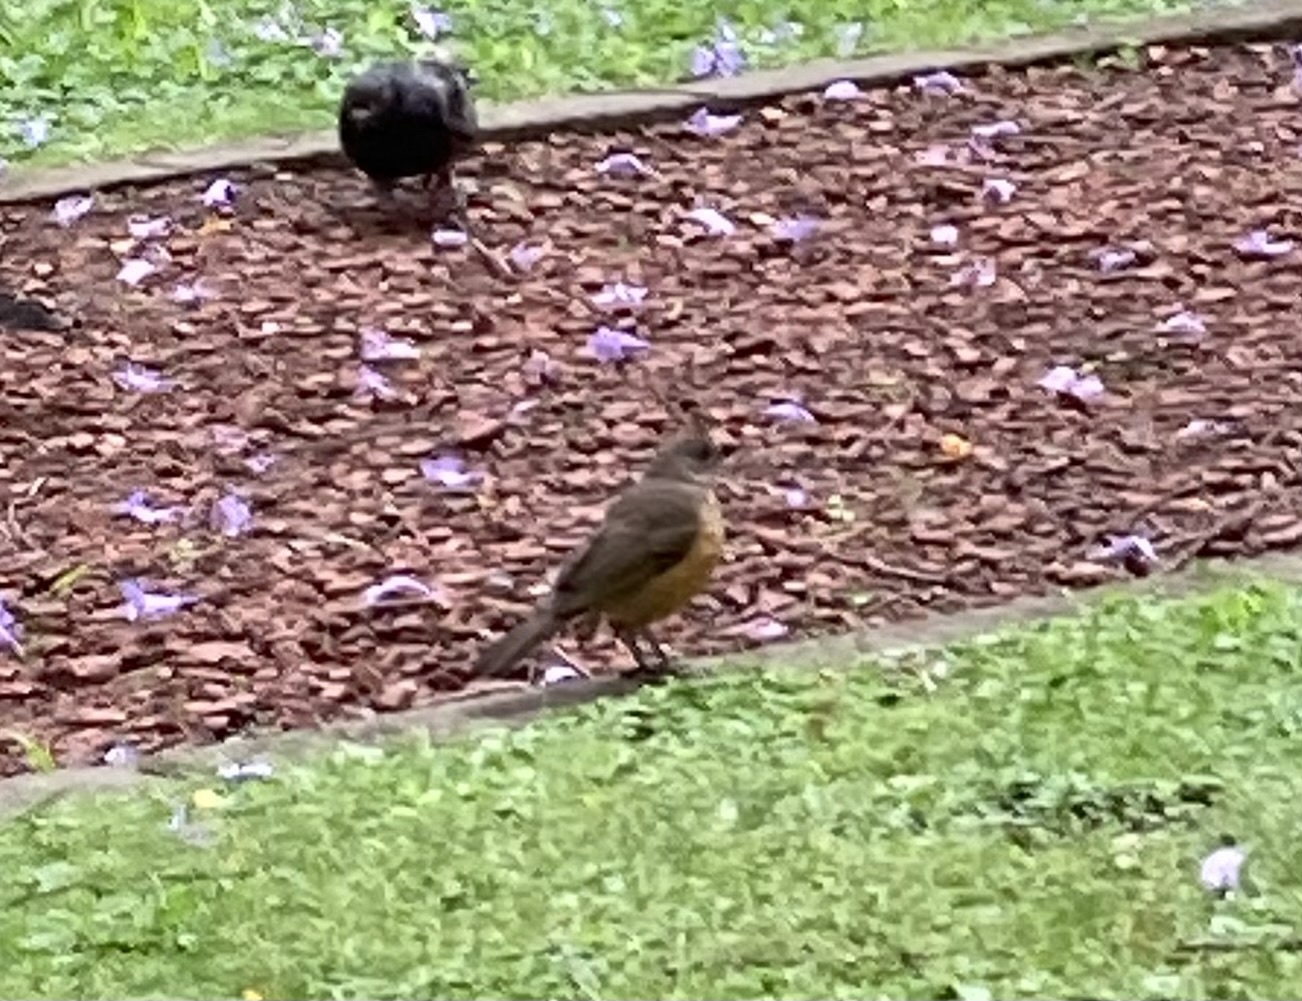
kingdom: Animalia
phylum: Chordata
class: Aves
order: Passeriformes
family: Turdidae
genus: Turdus
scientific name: Turdus rufiventris
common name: Rufous-bellied thrush
